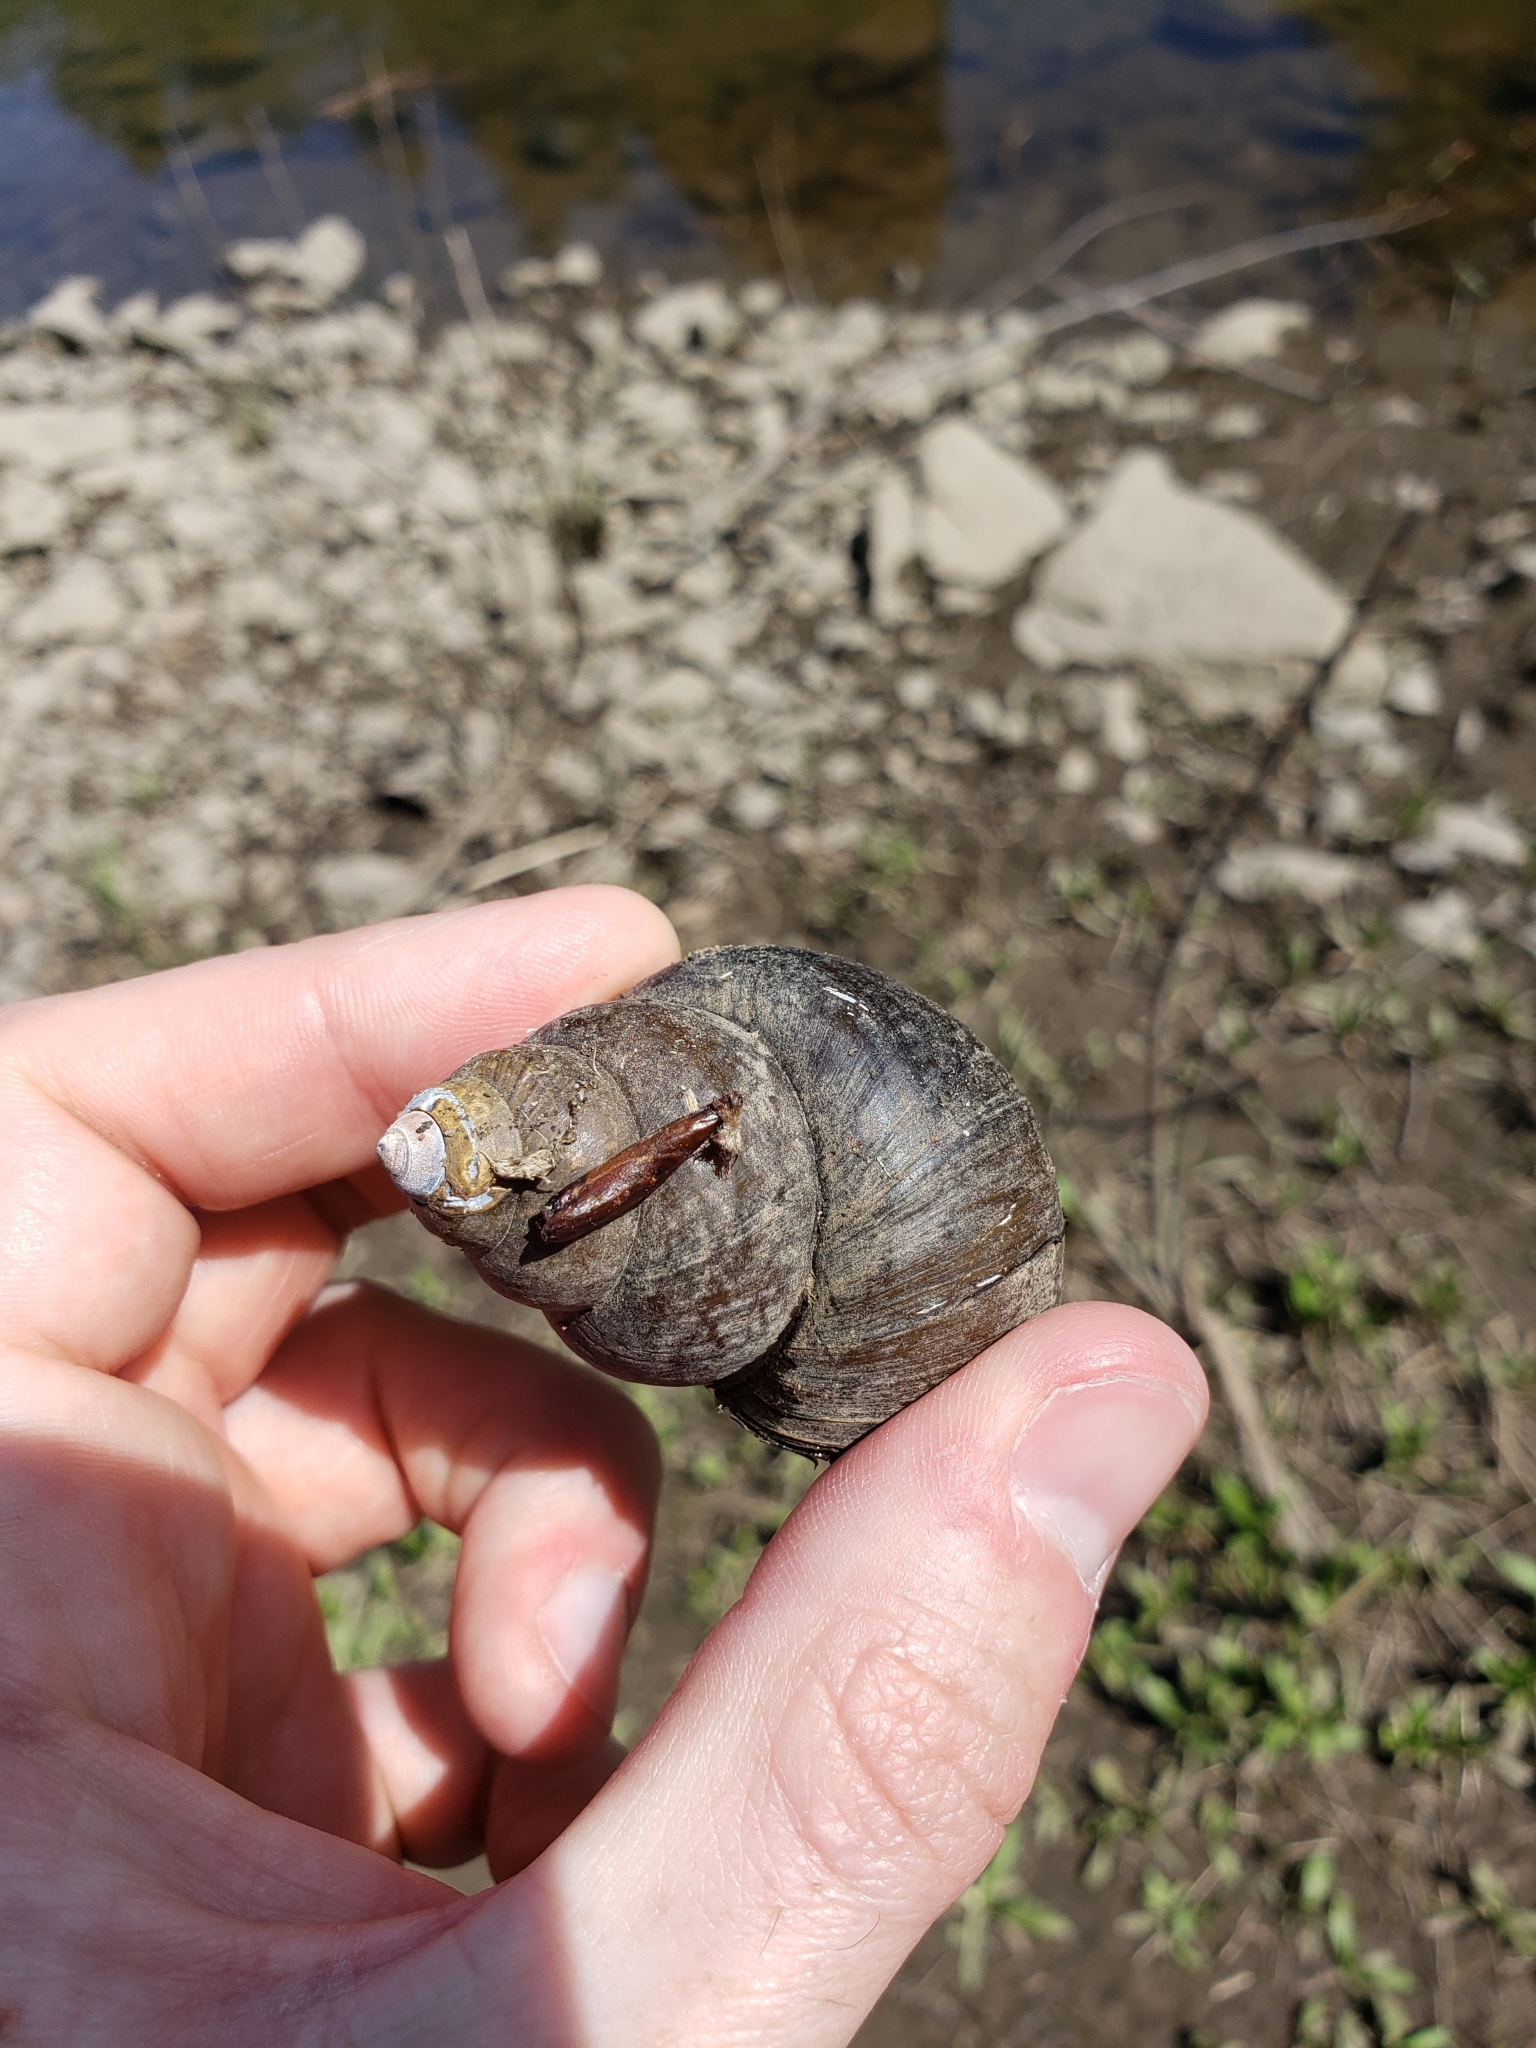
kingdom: Animalia
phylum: Mollusca
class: Gastropoda
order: Architaenioglossa
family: Viviparidae
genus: Cipangopaludina
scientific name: Cipangopaludina chinensis
